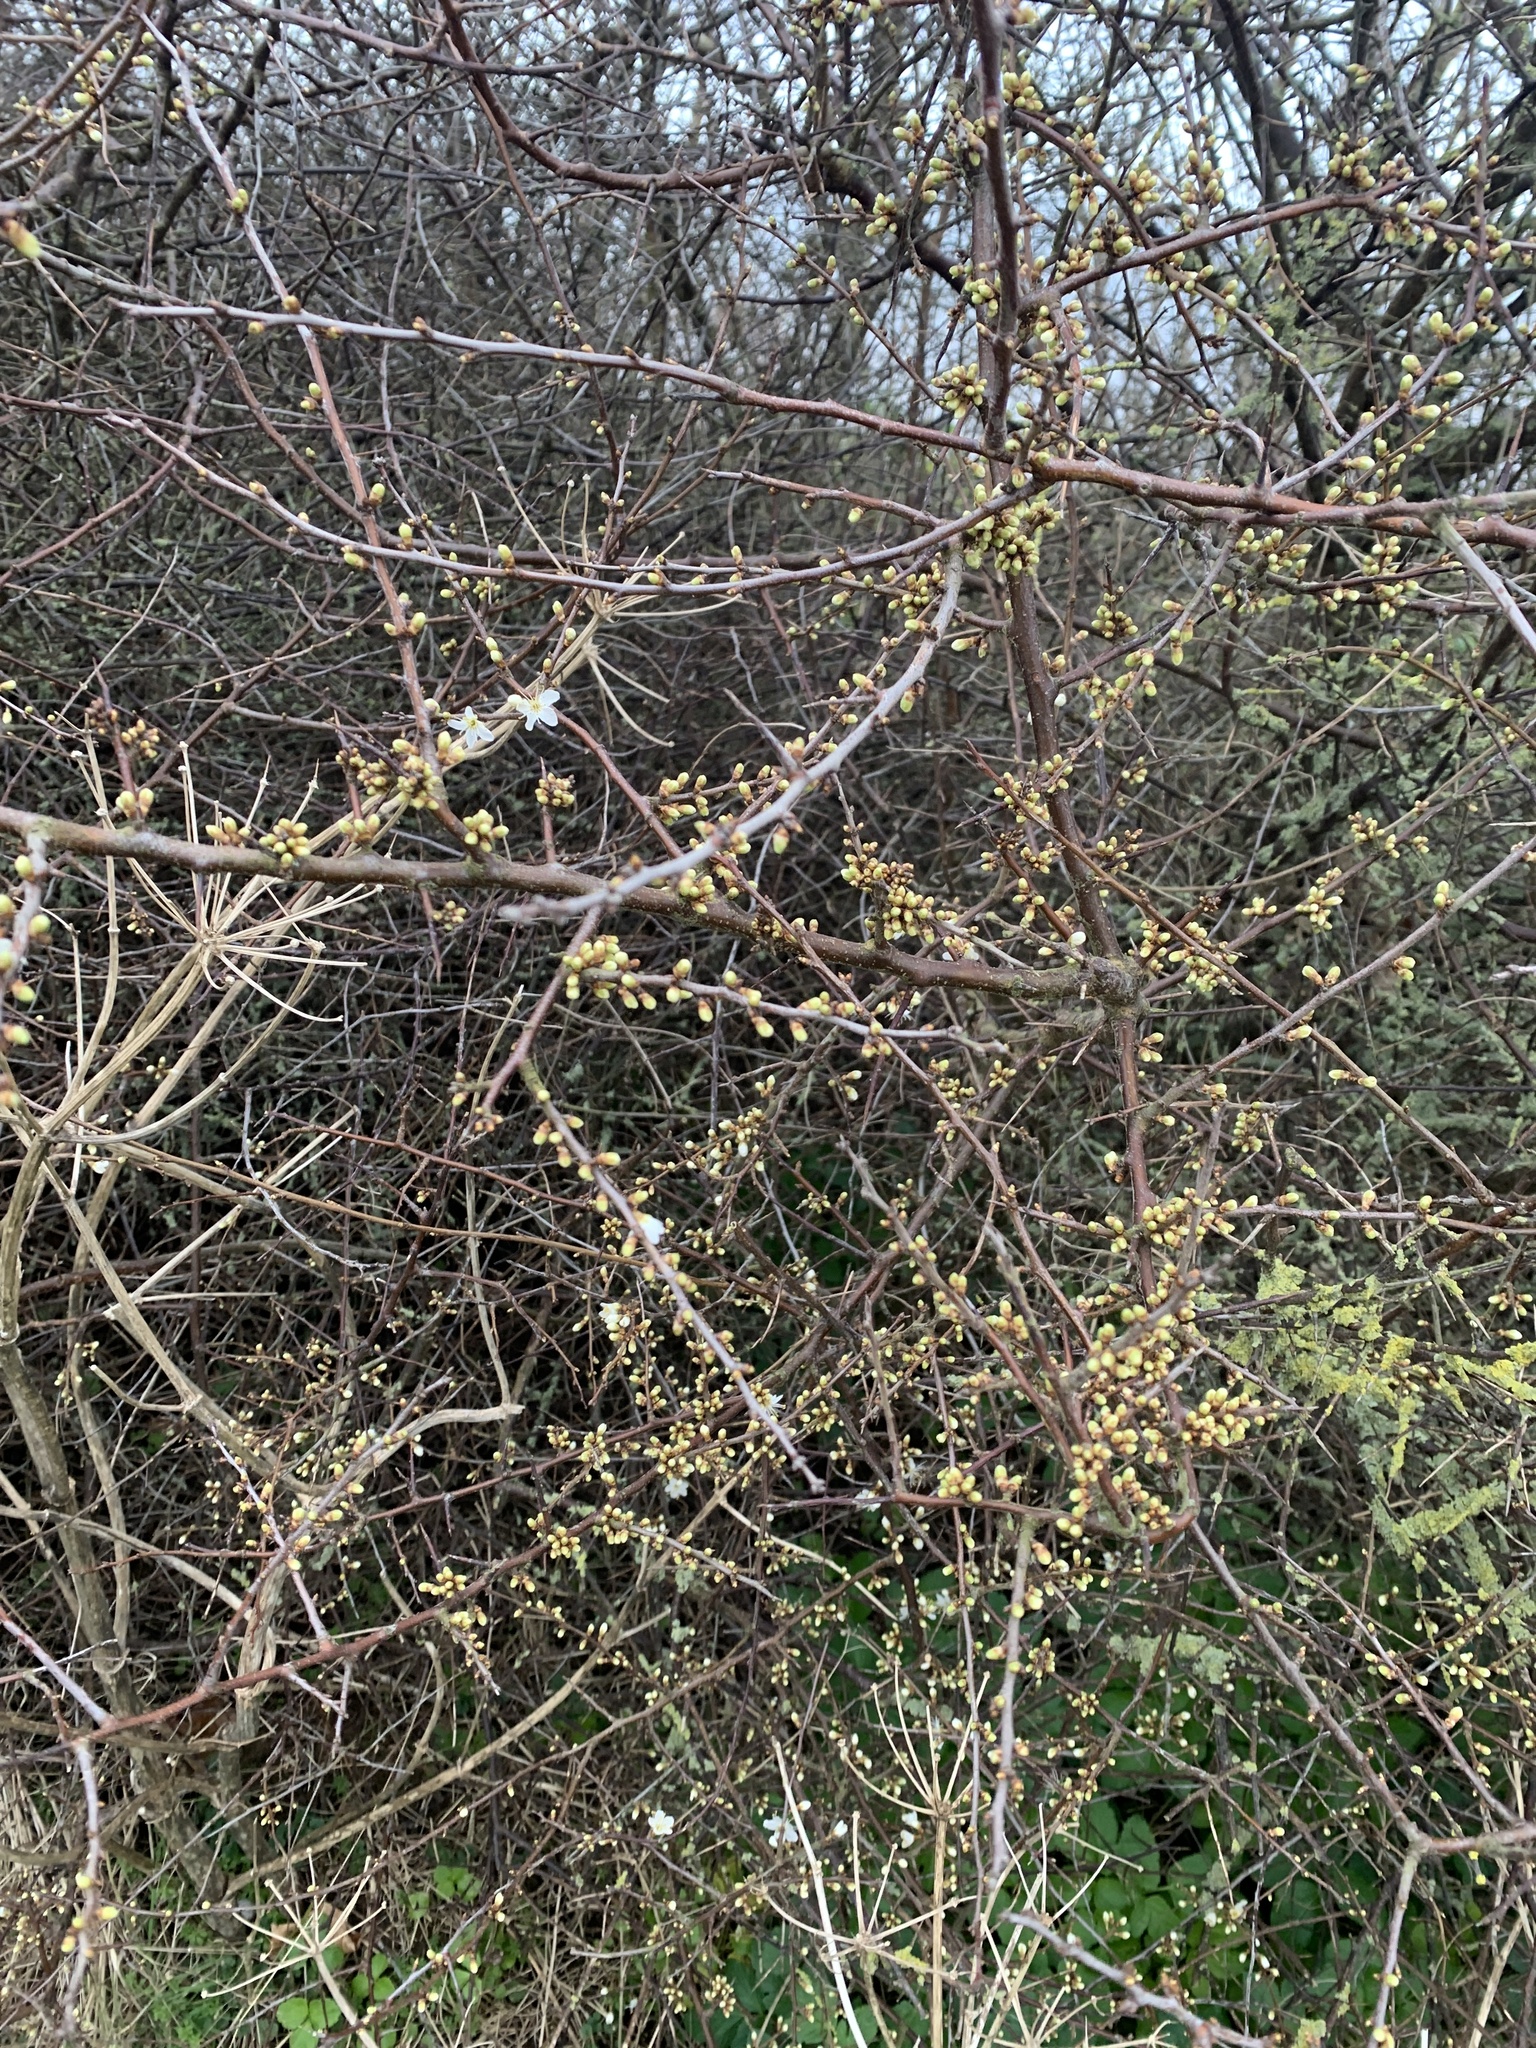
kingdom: Plantae
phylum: Tracheophyta
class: Magnoliopsida
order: Rosales
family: Rosaceae
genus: Prunus
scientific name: Prunus spinosa
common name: Blackthorn
